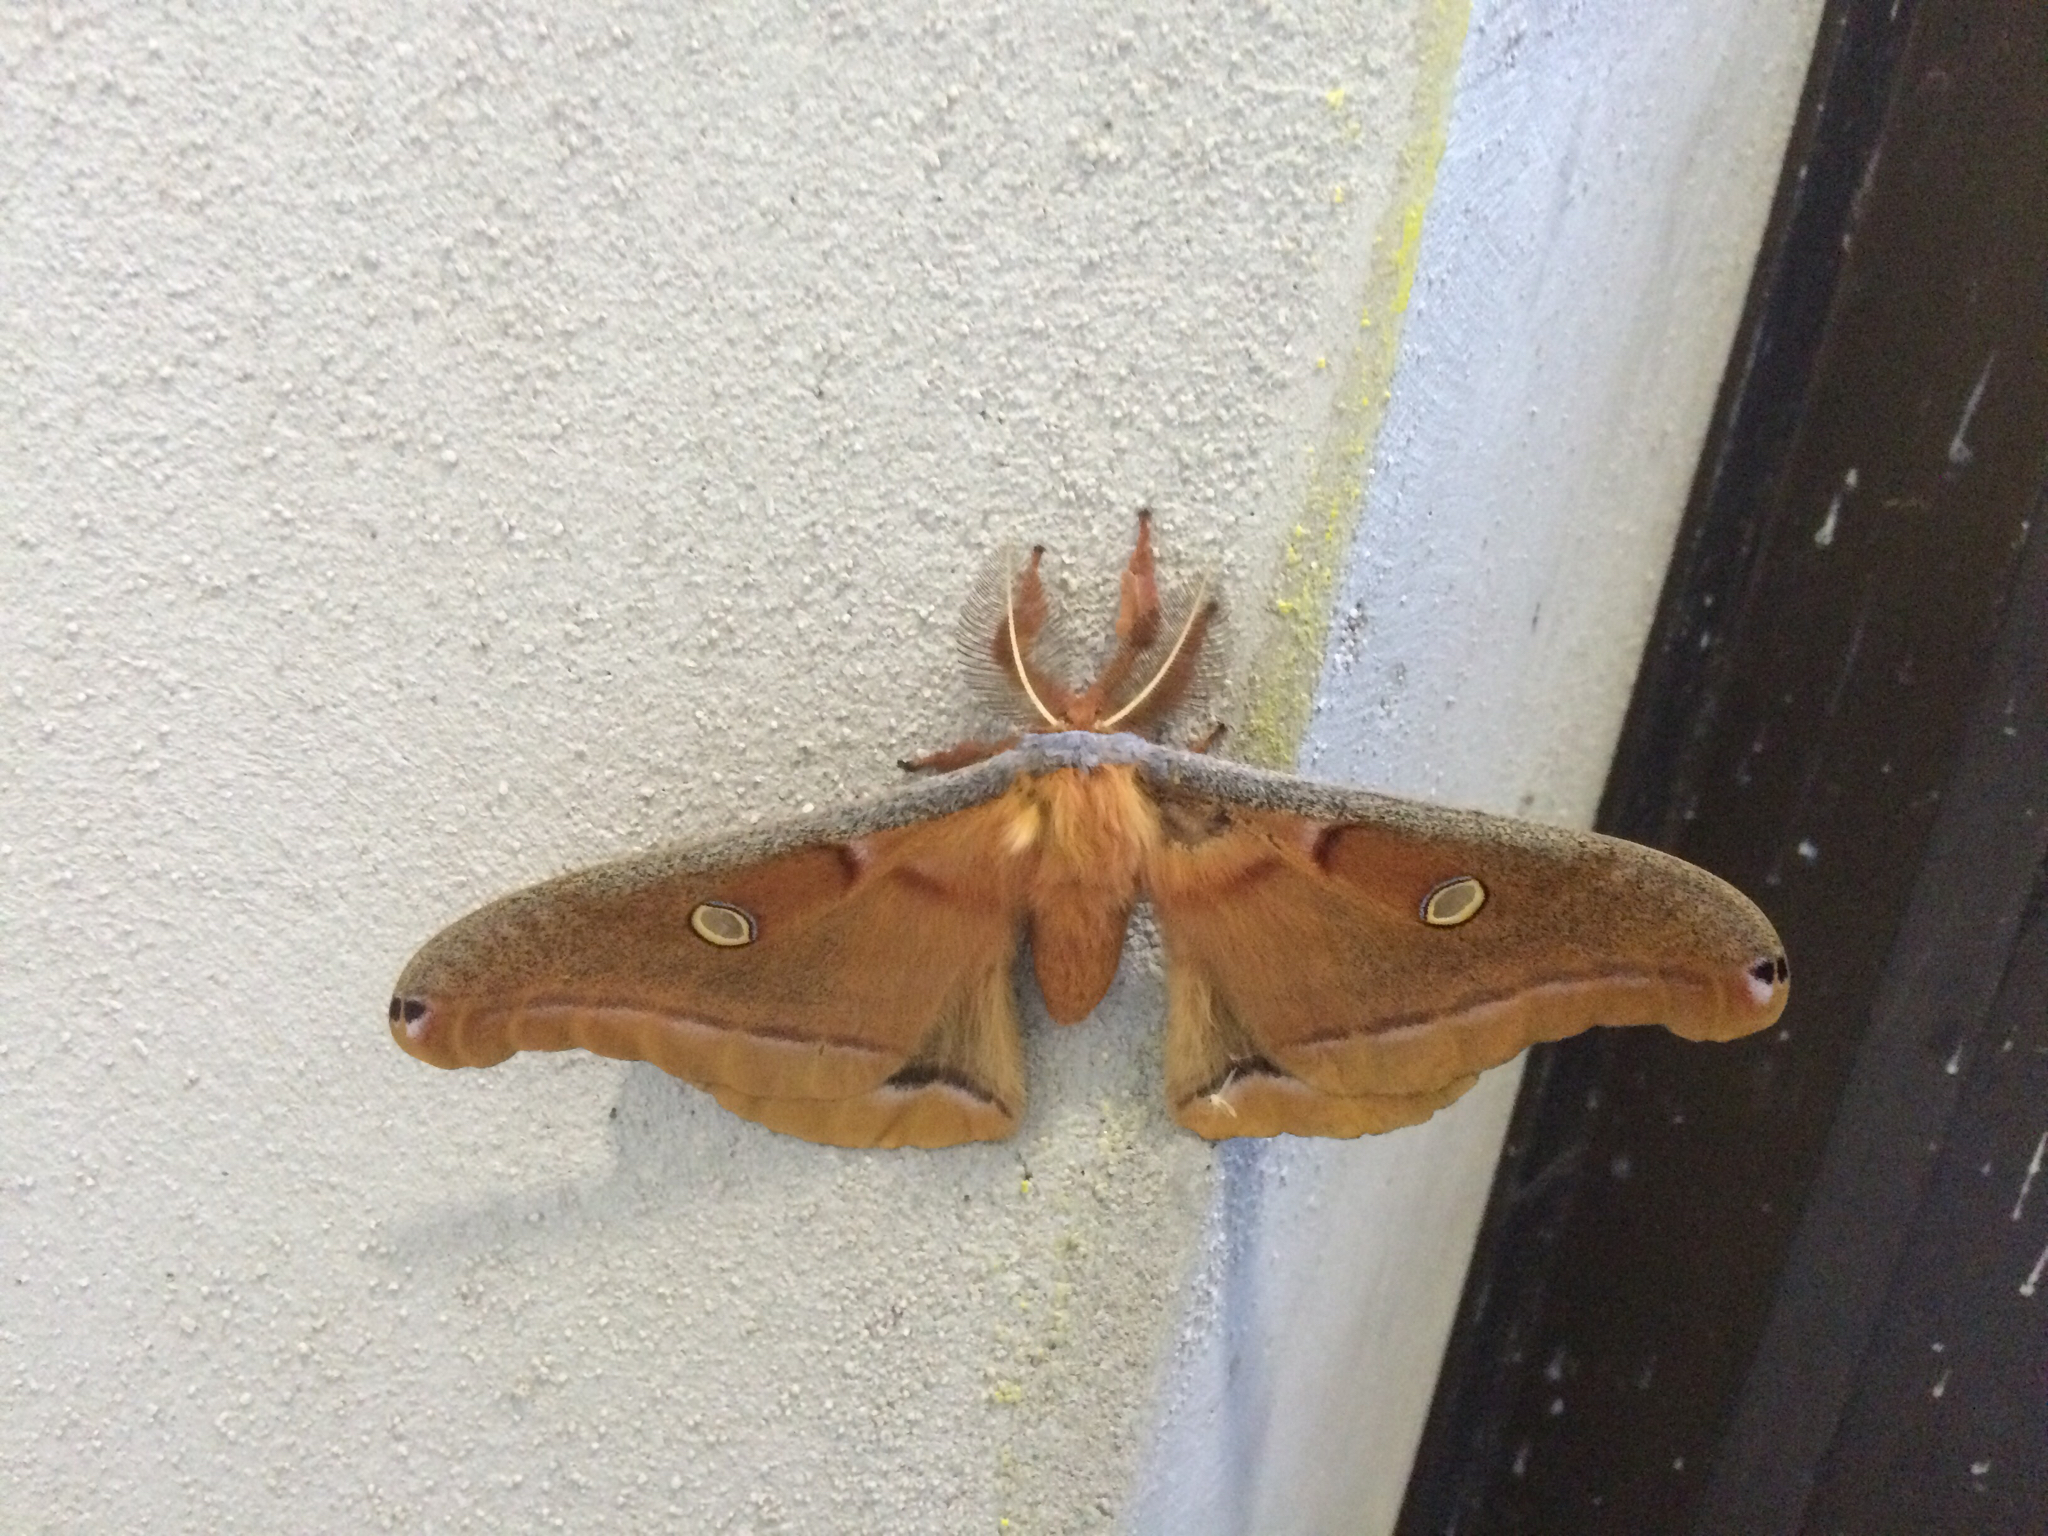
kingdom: Animalia
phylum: Arthropoda
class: Insecta
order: Lepidoptera
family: Saturniidae
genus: Antheraea
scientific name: Antheraea polyphemus
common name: Polyphemus moth
